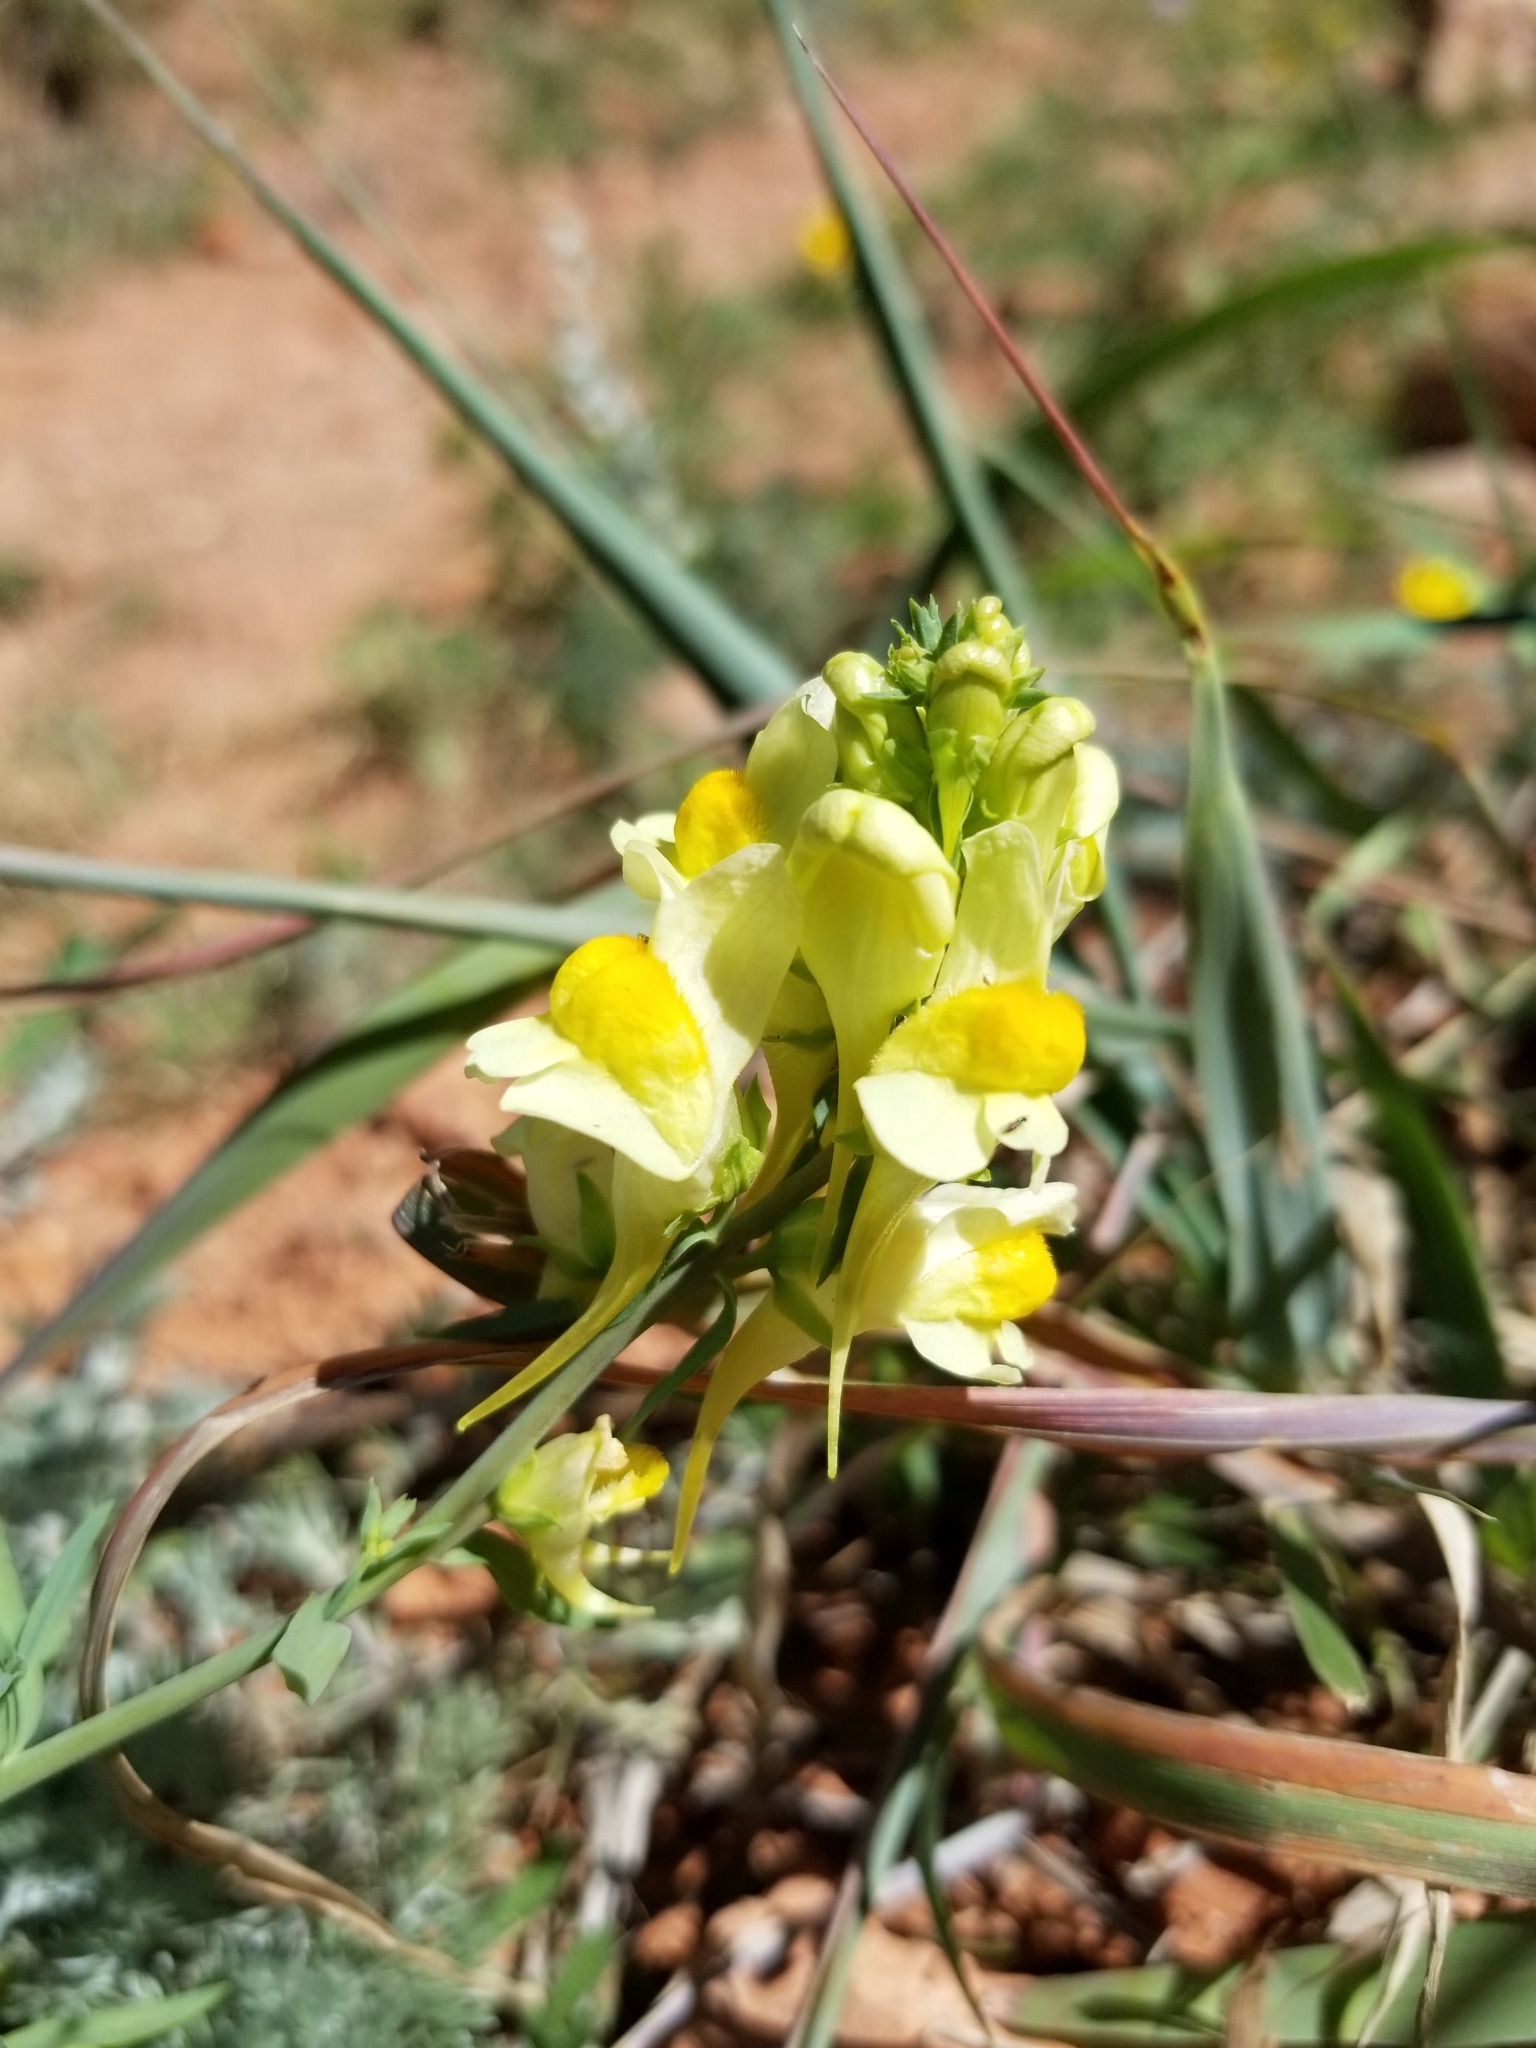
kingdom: Plantae
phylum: Tracheophyta
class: Magnoliopsida
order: Lamiales
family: Plantaginaceae
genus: Linaria
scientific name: Linaria vulgaris
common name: Butter and eggs
